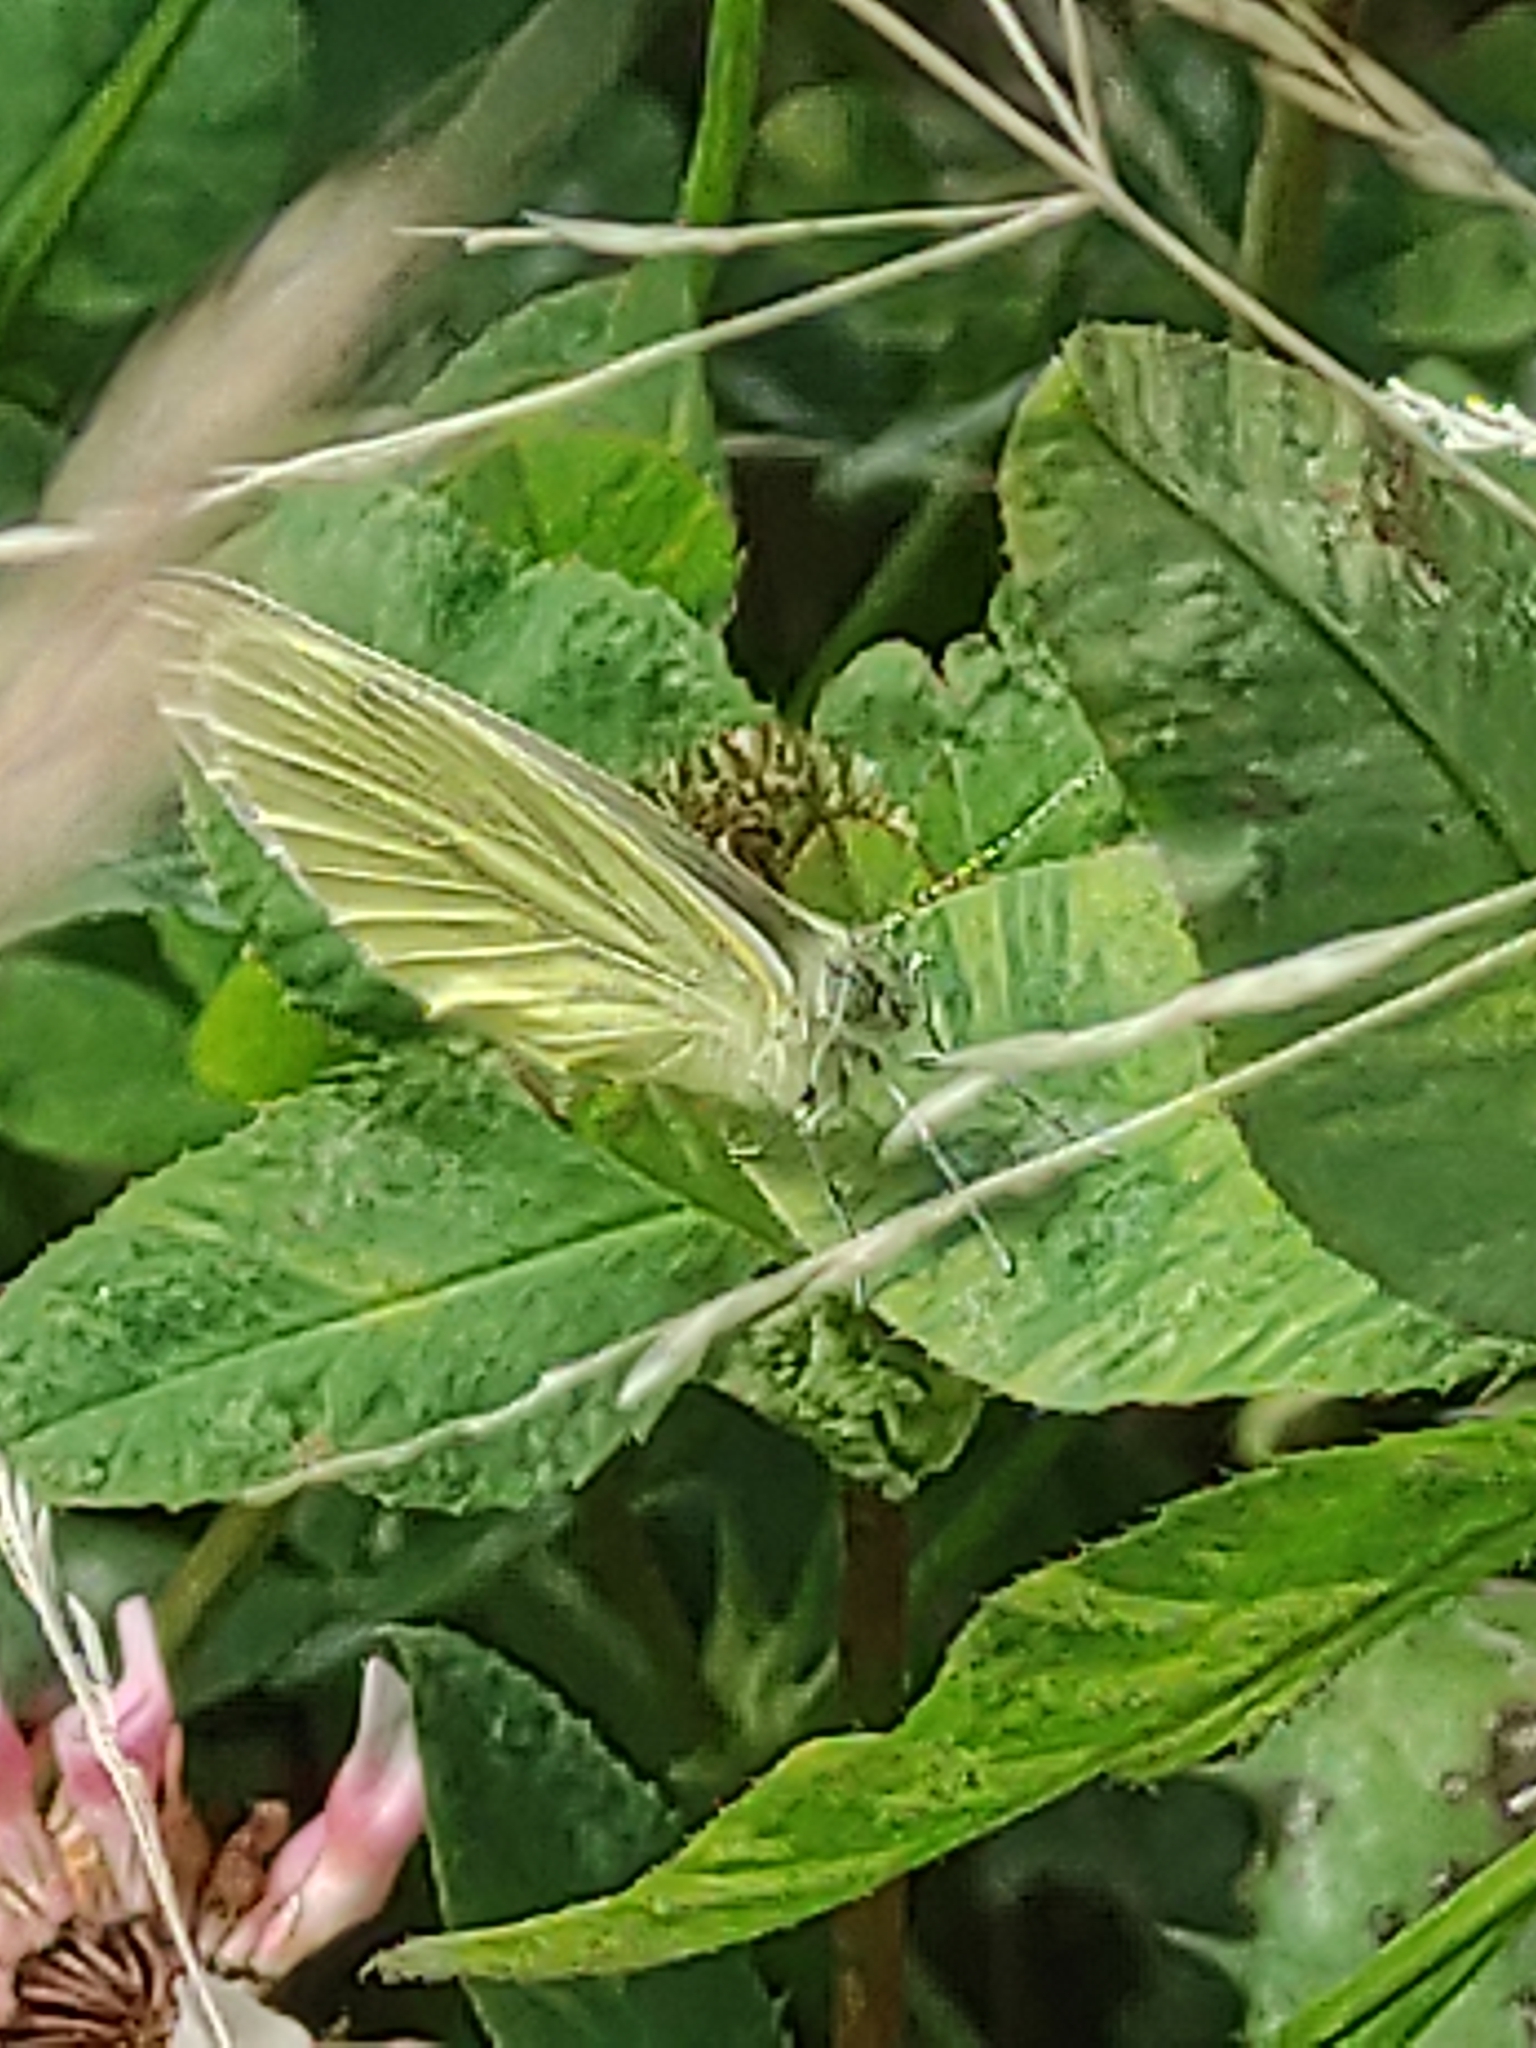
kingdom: Animalia
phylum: Arthropoda
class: Insecta
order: Lepidoptera
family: Pieridae
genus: Pieris
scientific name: Pieris napi
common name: Green-veined white
